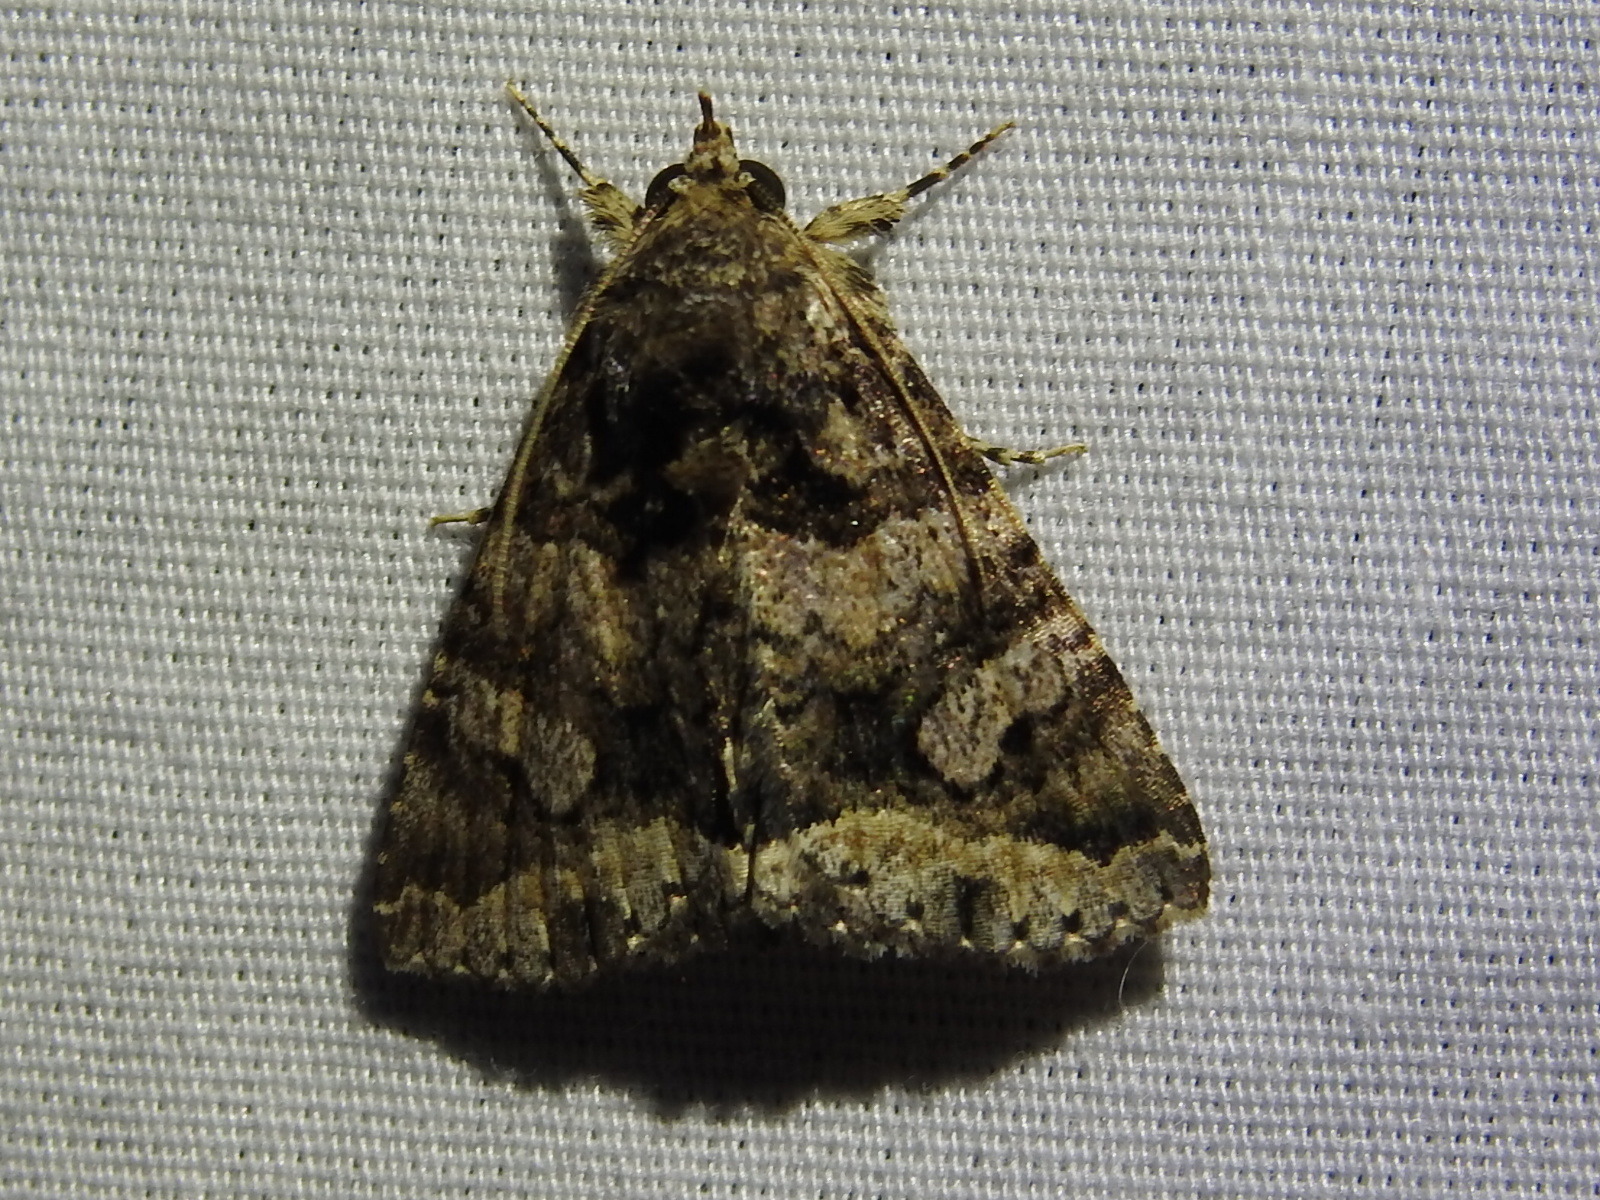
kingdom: Animalia
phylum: Arthropoda
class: Insecta
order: Lepidoptera
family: Erebidae
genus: Elousa
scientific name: Elousa mima
